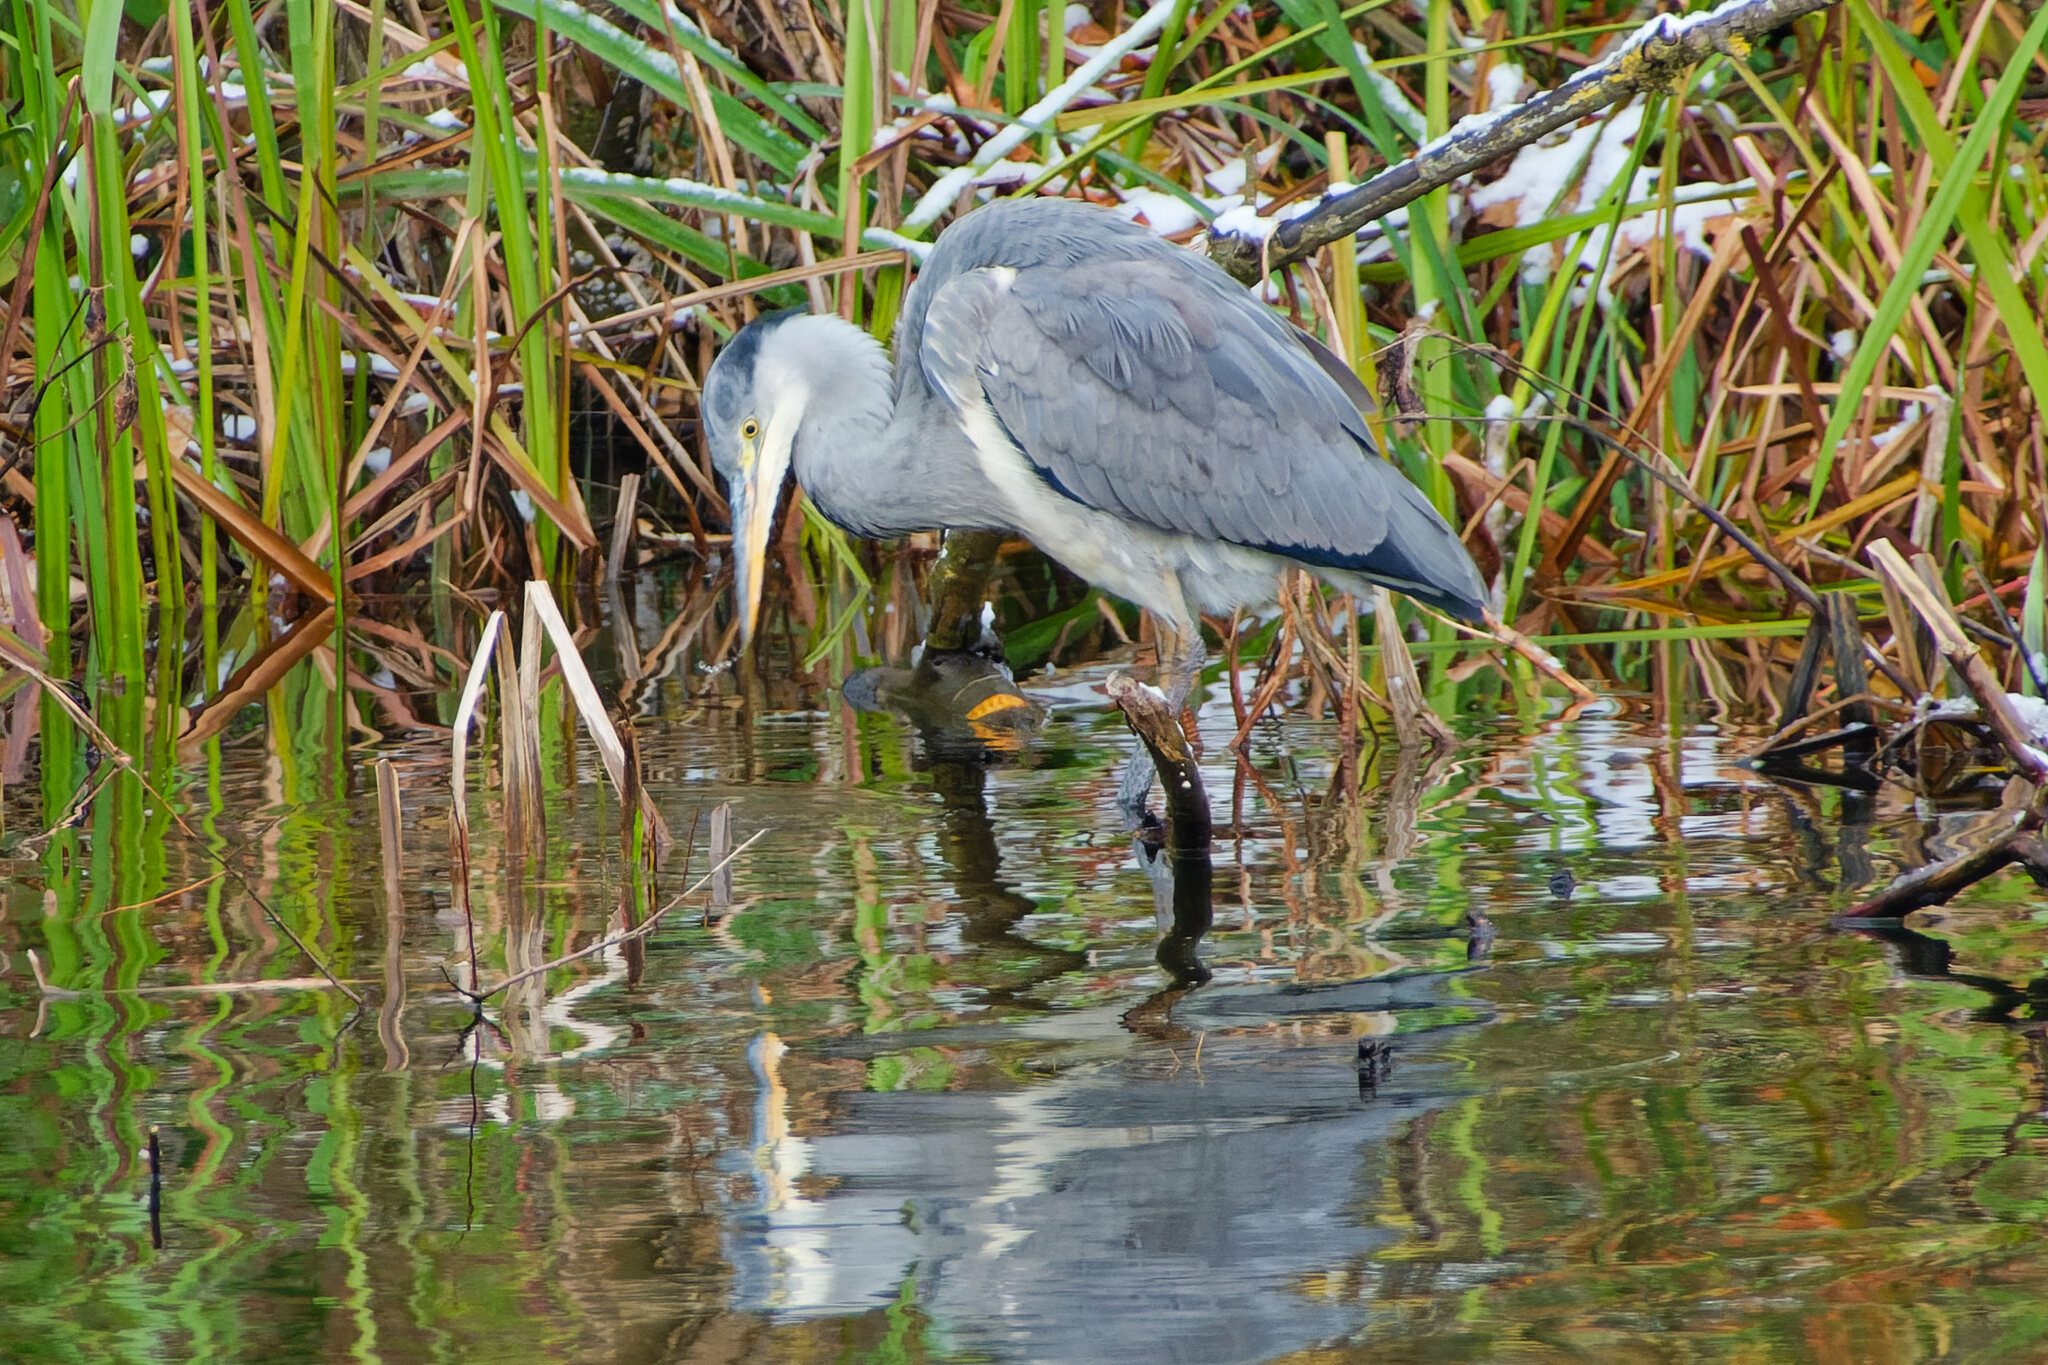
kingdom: Animalia
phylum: Chordata
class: Aves
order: Pelecaniformes
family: Ardeidae
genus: Ardea
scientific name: Ardea cinerea
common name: Grey heron
